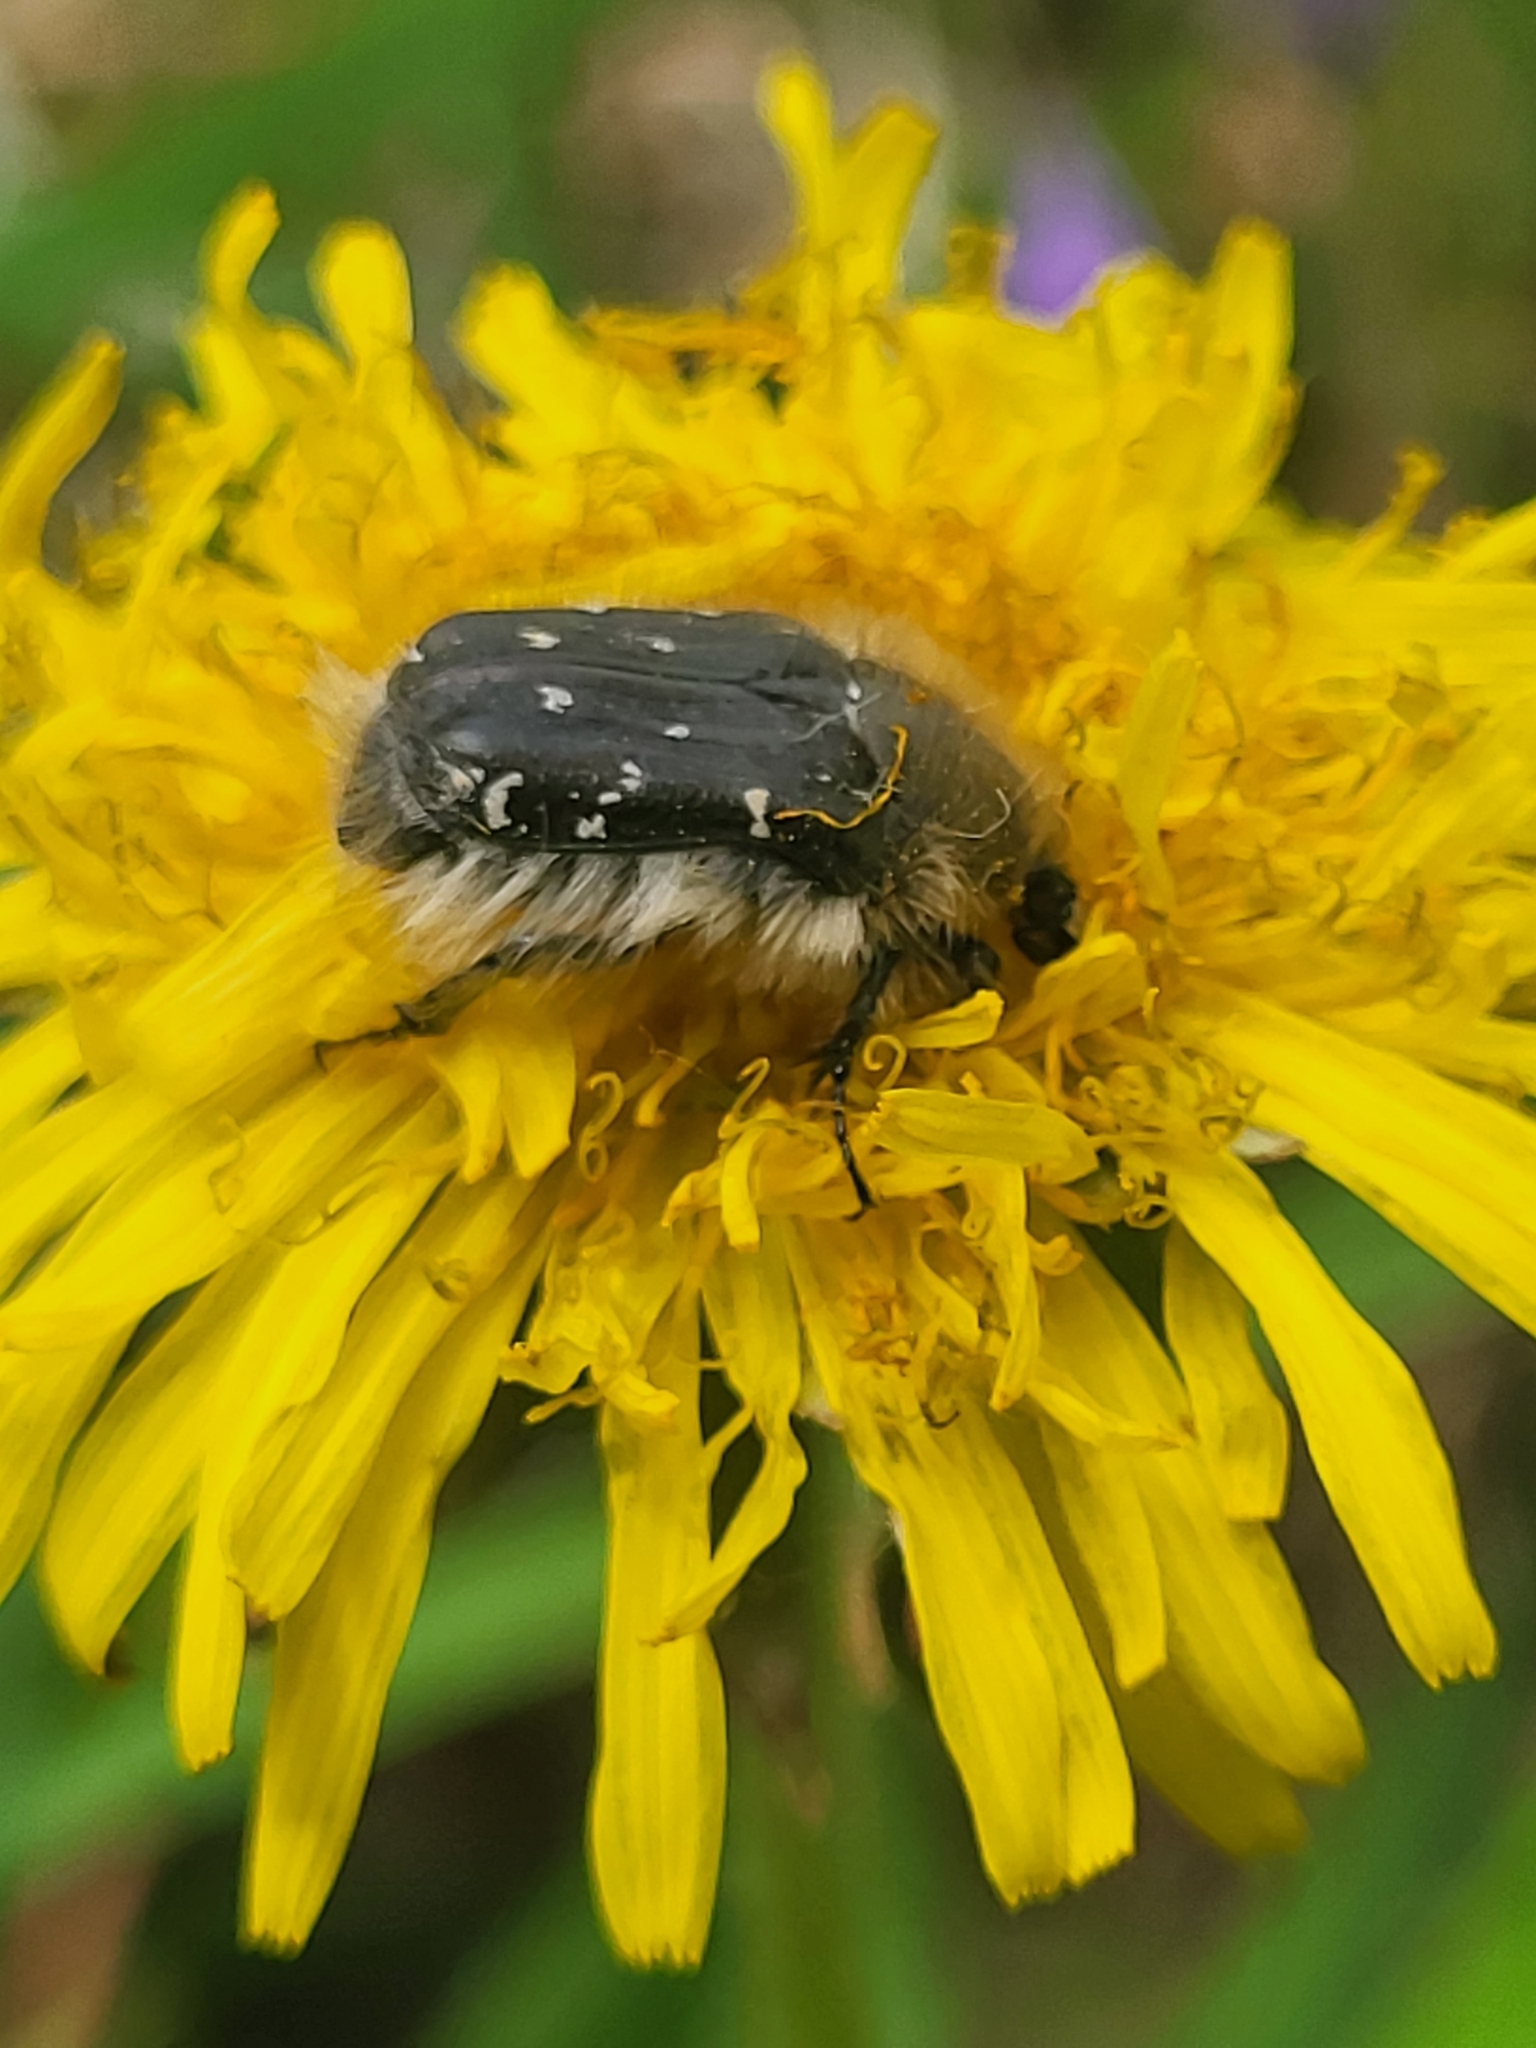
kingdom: Animalia
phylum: Arthropoda
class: Insecta
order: Coleoptera
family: Scarabaeidae
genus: Tropinota
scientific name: Tropinota hirta
